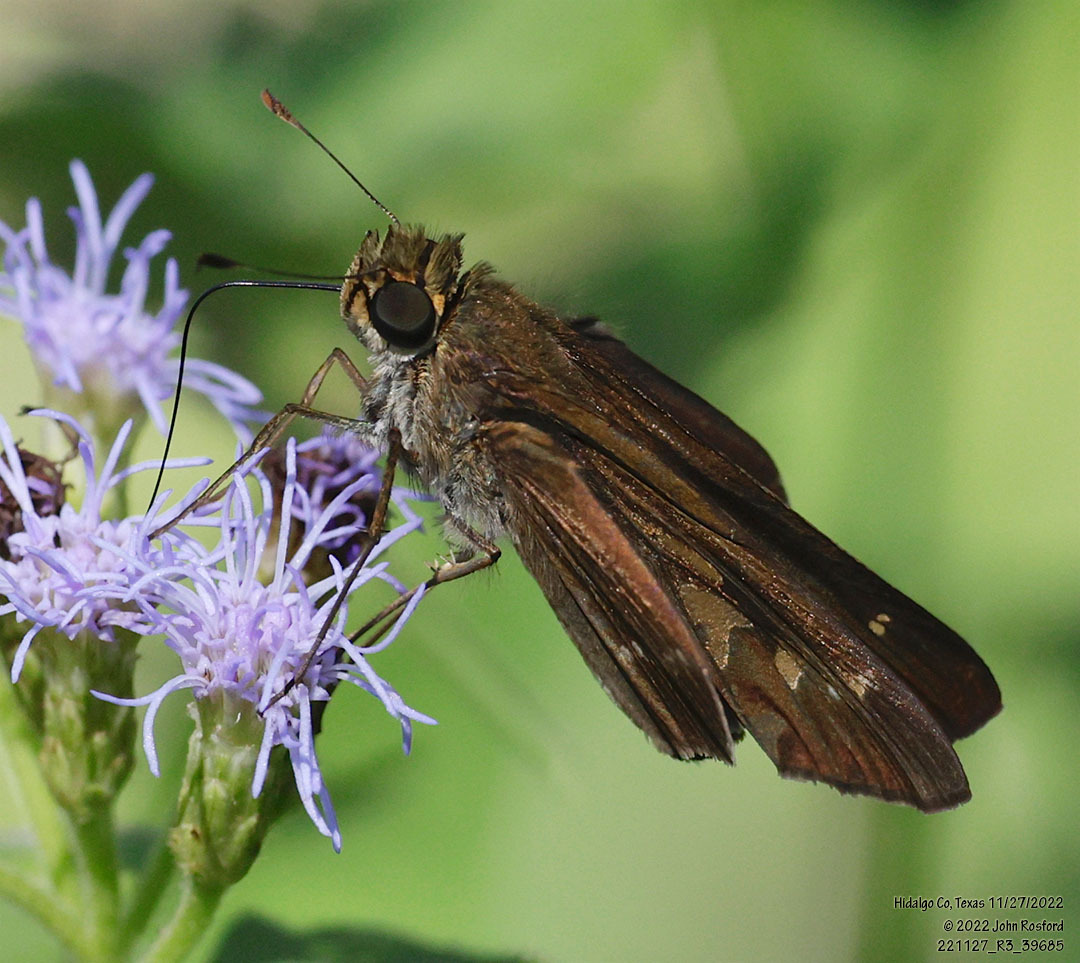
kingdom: Animalia
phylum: Arthropoda
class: Insecta
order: Lepidoptera
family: Hesperiidae
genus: Turesis
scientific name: Turesis lucas
